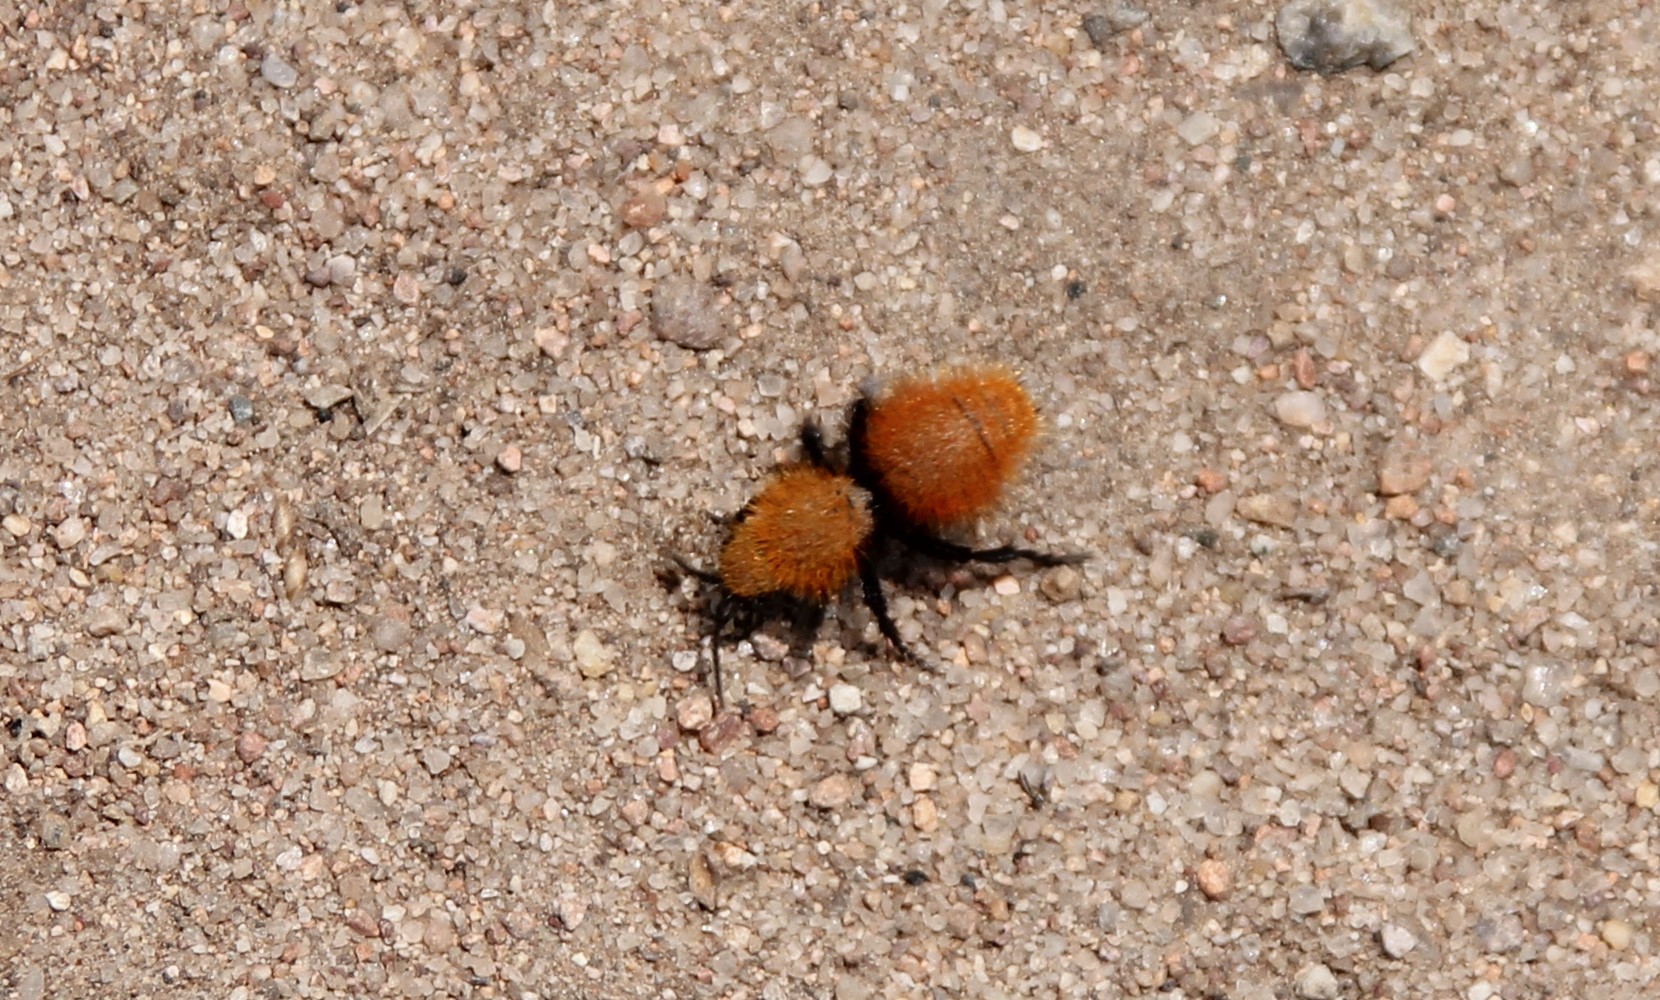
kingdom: Animalia
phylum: Arthropoda
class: Insecta
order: Hymenoptera
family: Mutillidae
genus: Dasymutilla
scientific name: Dasymutilla
